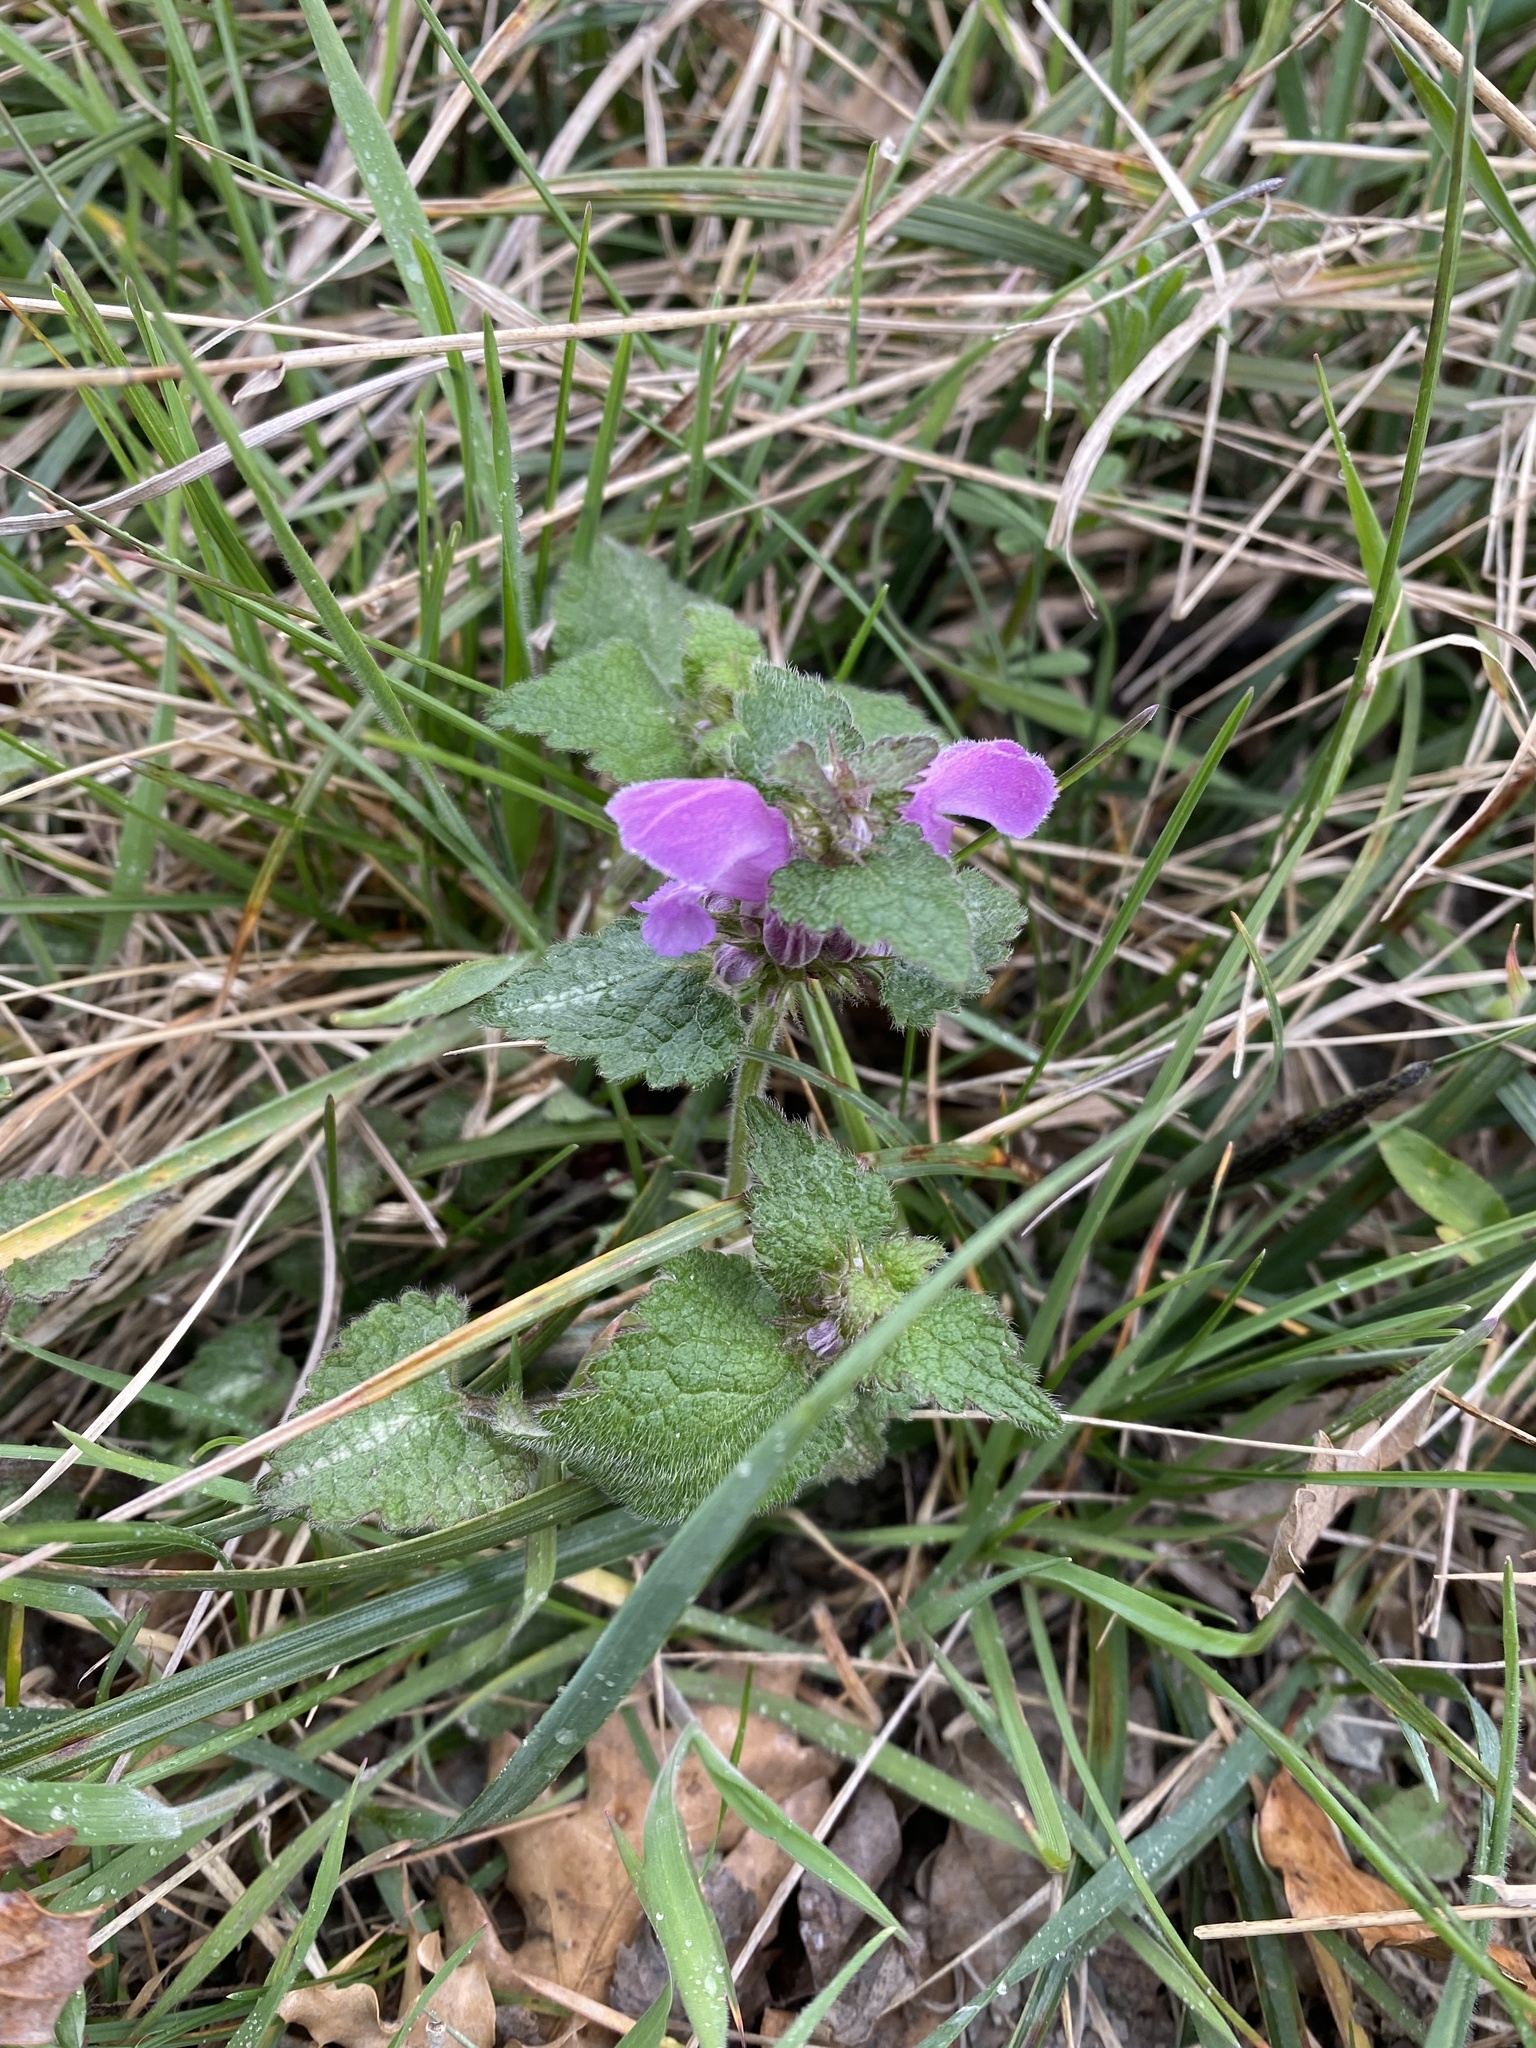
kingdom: Plantae
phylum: Tracheophyta
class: Magnoliopsida
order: Lamiales
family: Lamiaceae
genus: Lamium
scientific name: Lamium maculatum
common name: Spotted dead-nettle
